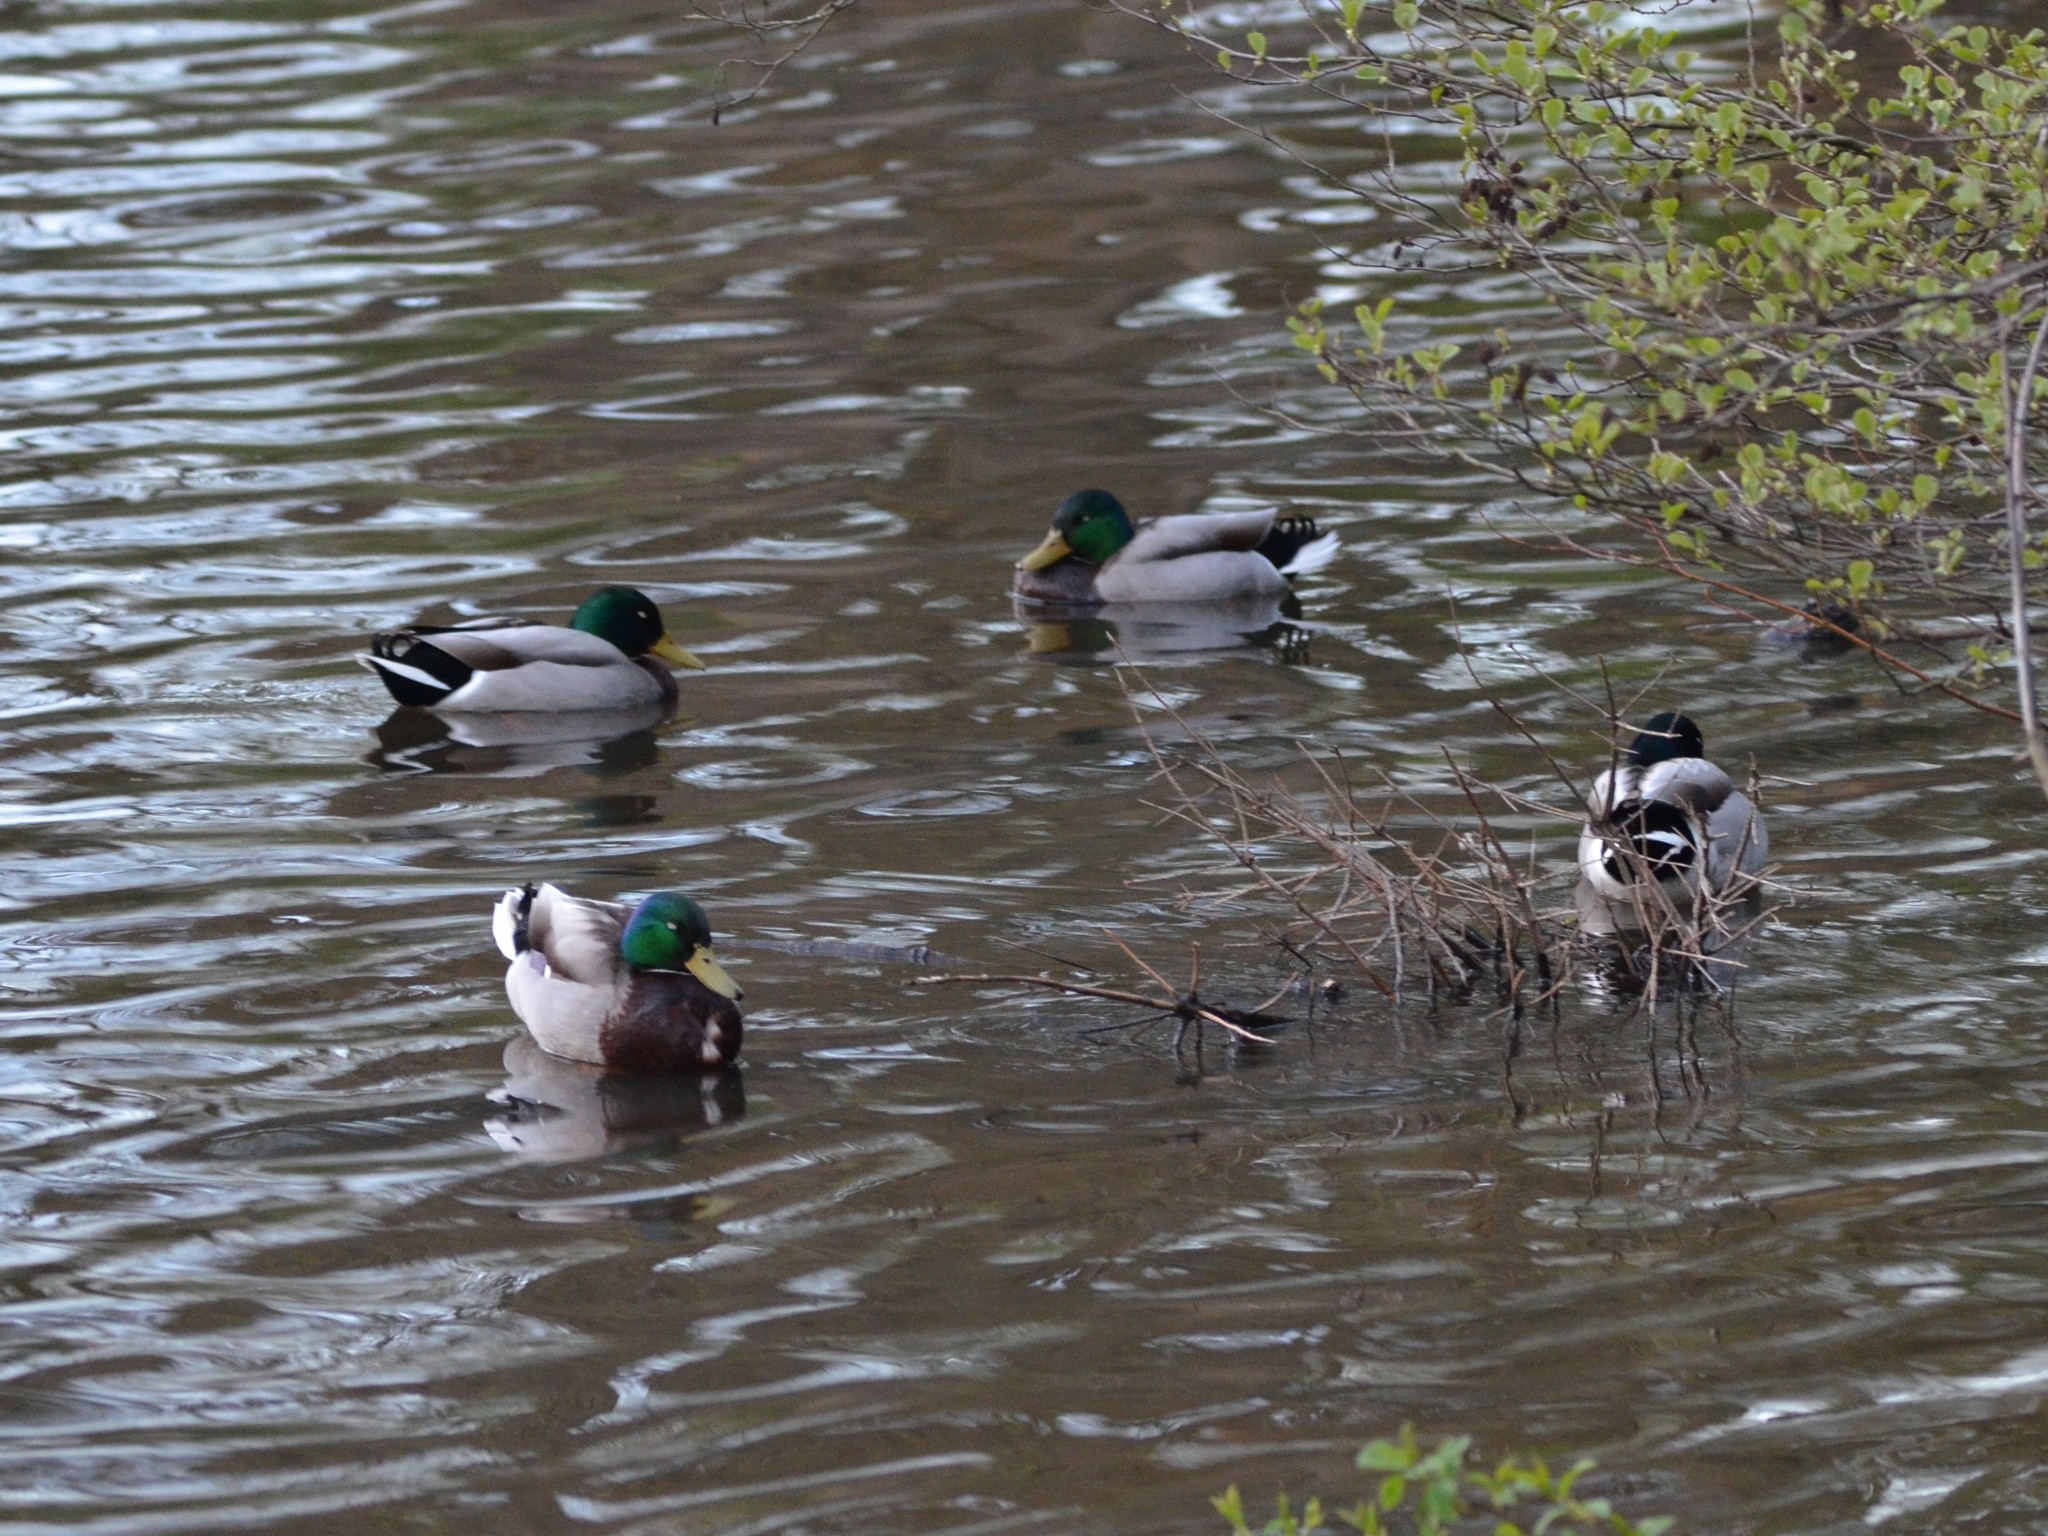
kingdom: Animalia
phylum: Chordata
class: Aves
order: Anseriformes
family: Anatidae
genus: Anas
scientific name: Anas platyrhynchos
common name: Mallard
